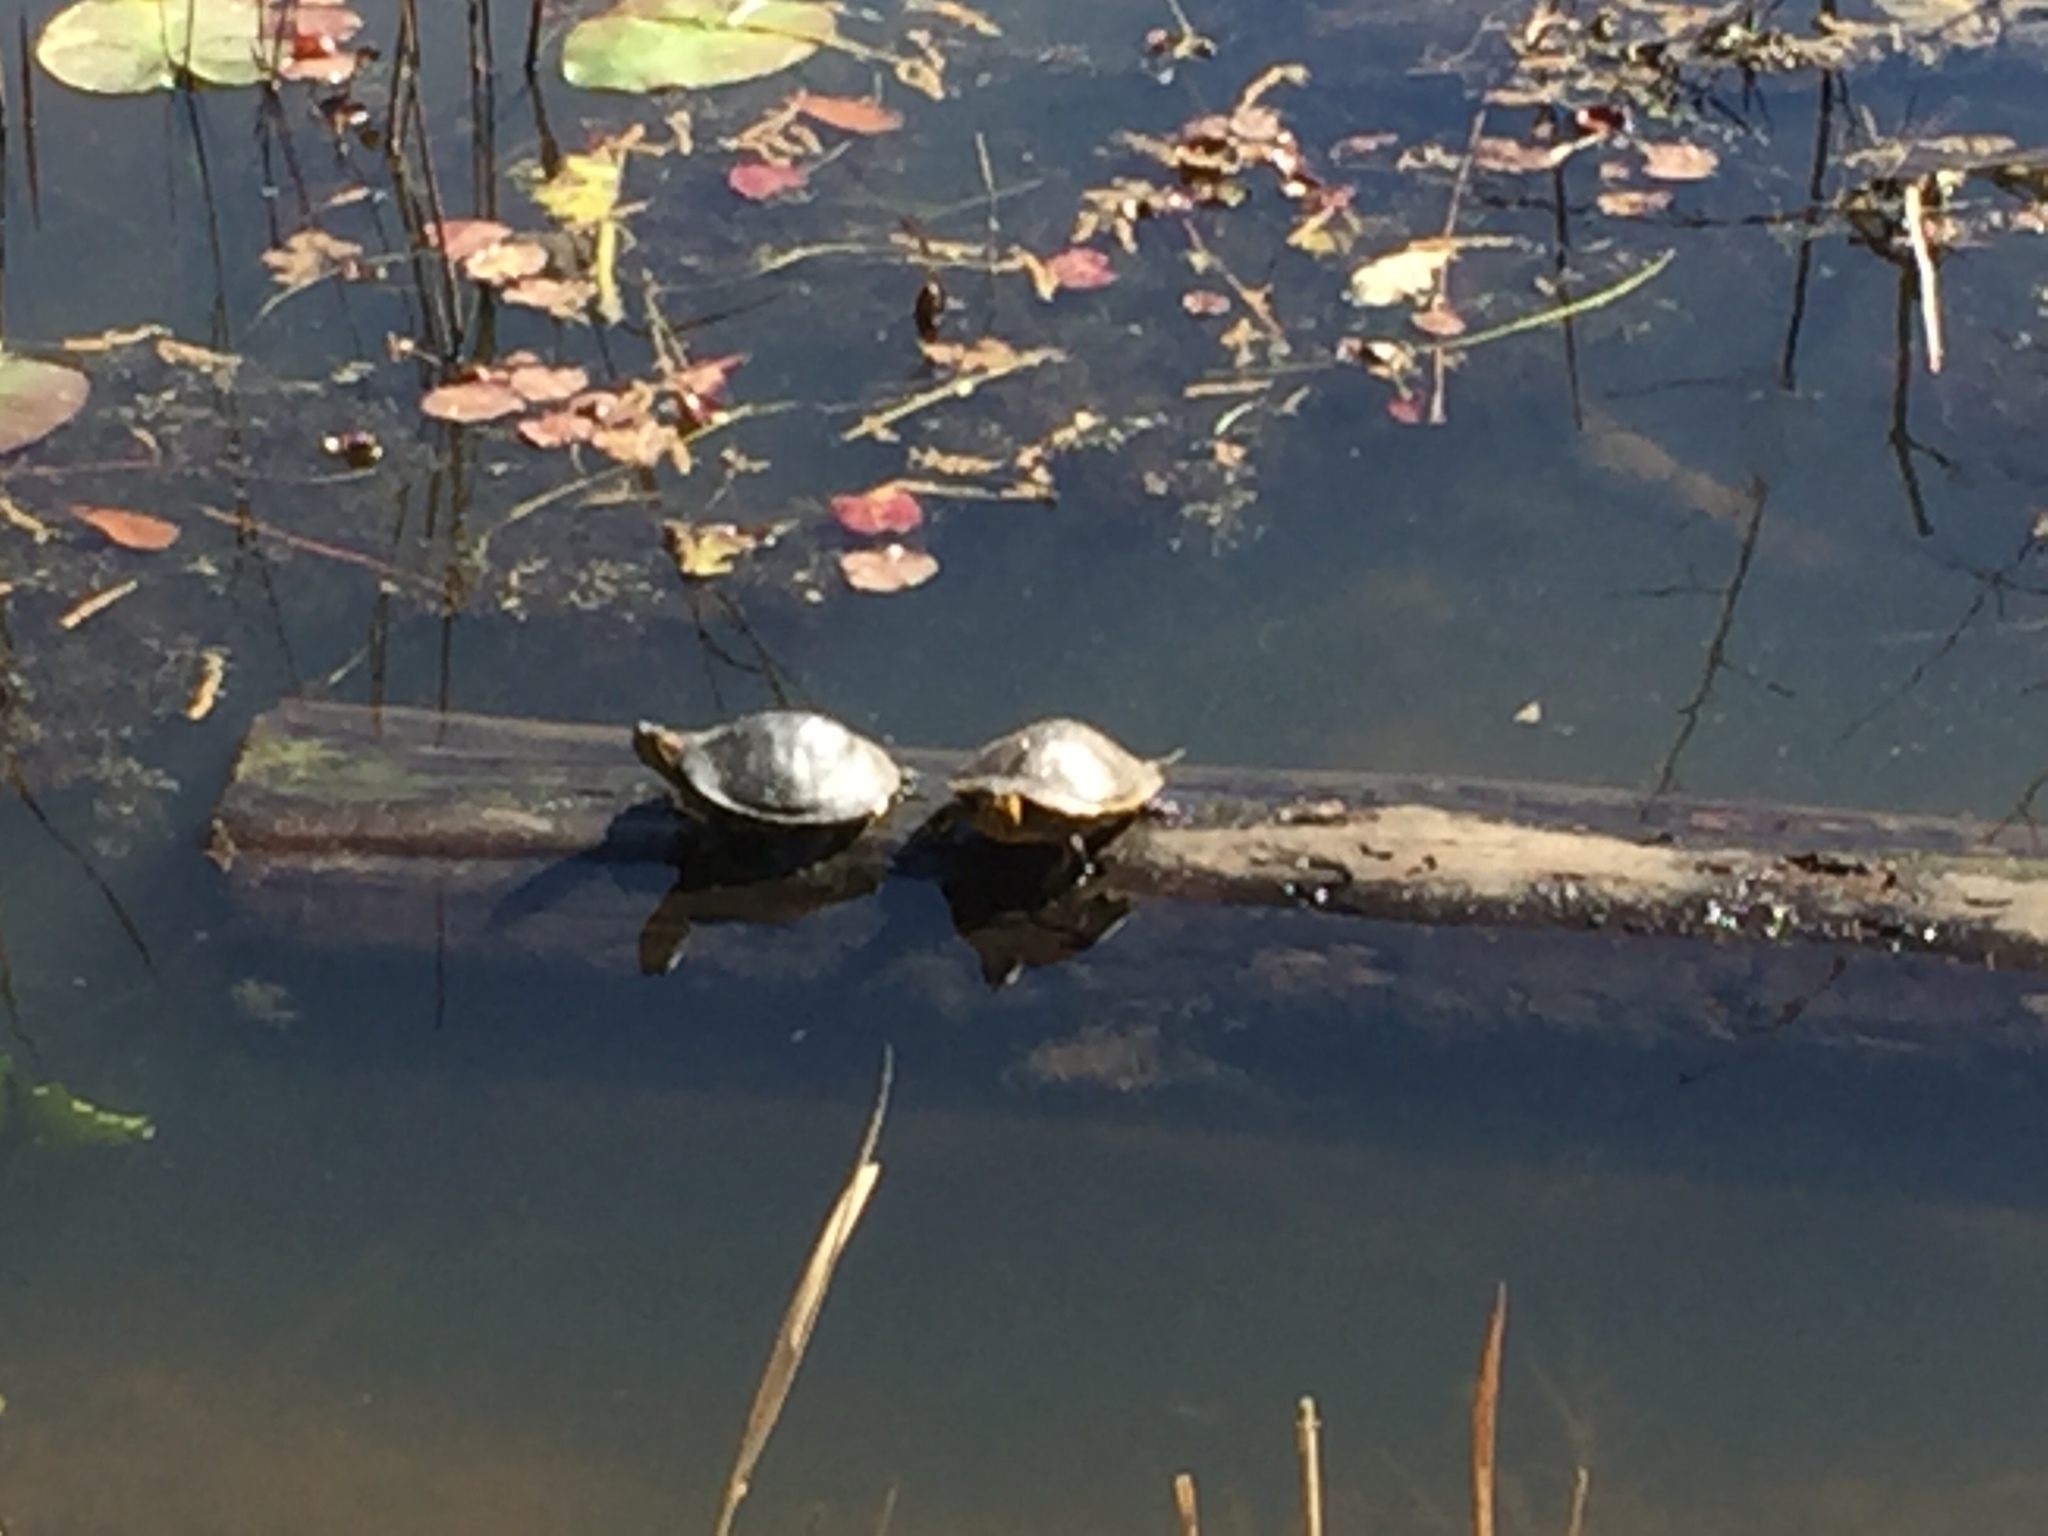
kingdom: Animalia
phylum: Chordata
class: Testudines
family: Emydidae
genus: Trachemys
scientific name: Trachemys scripta
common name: Slider
